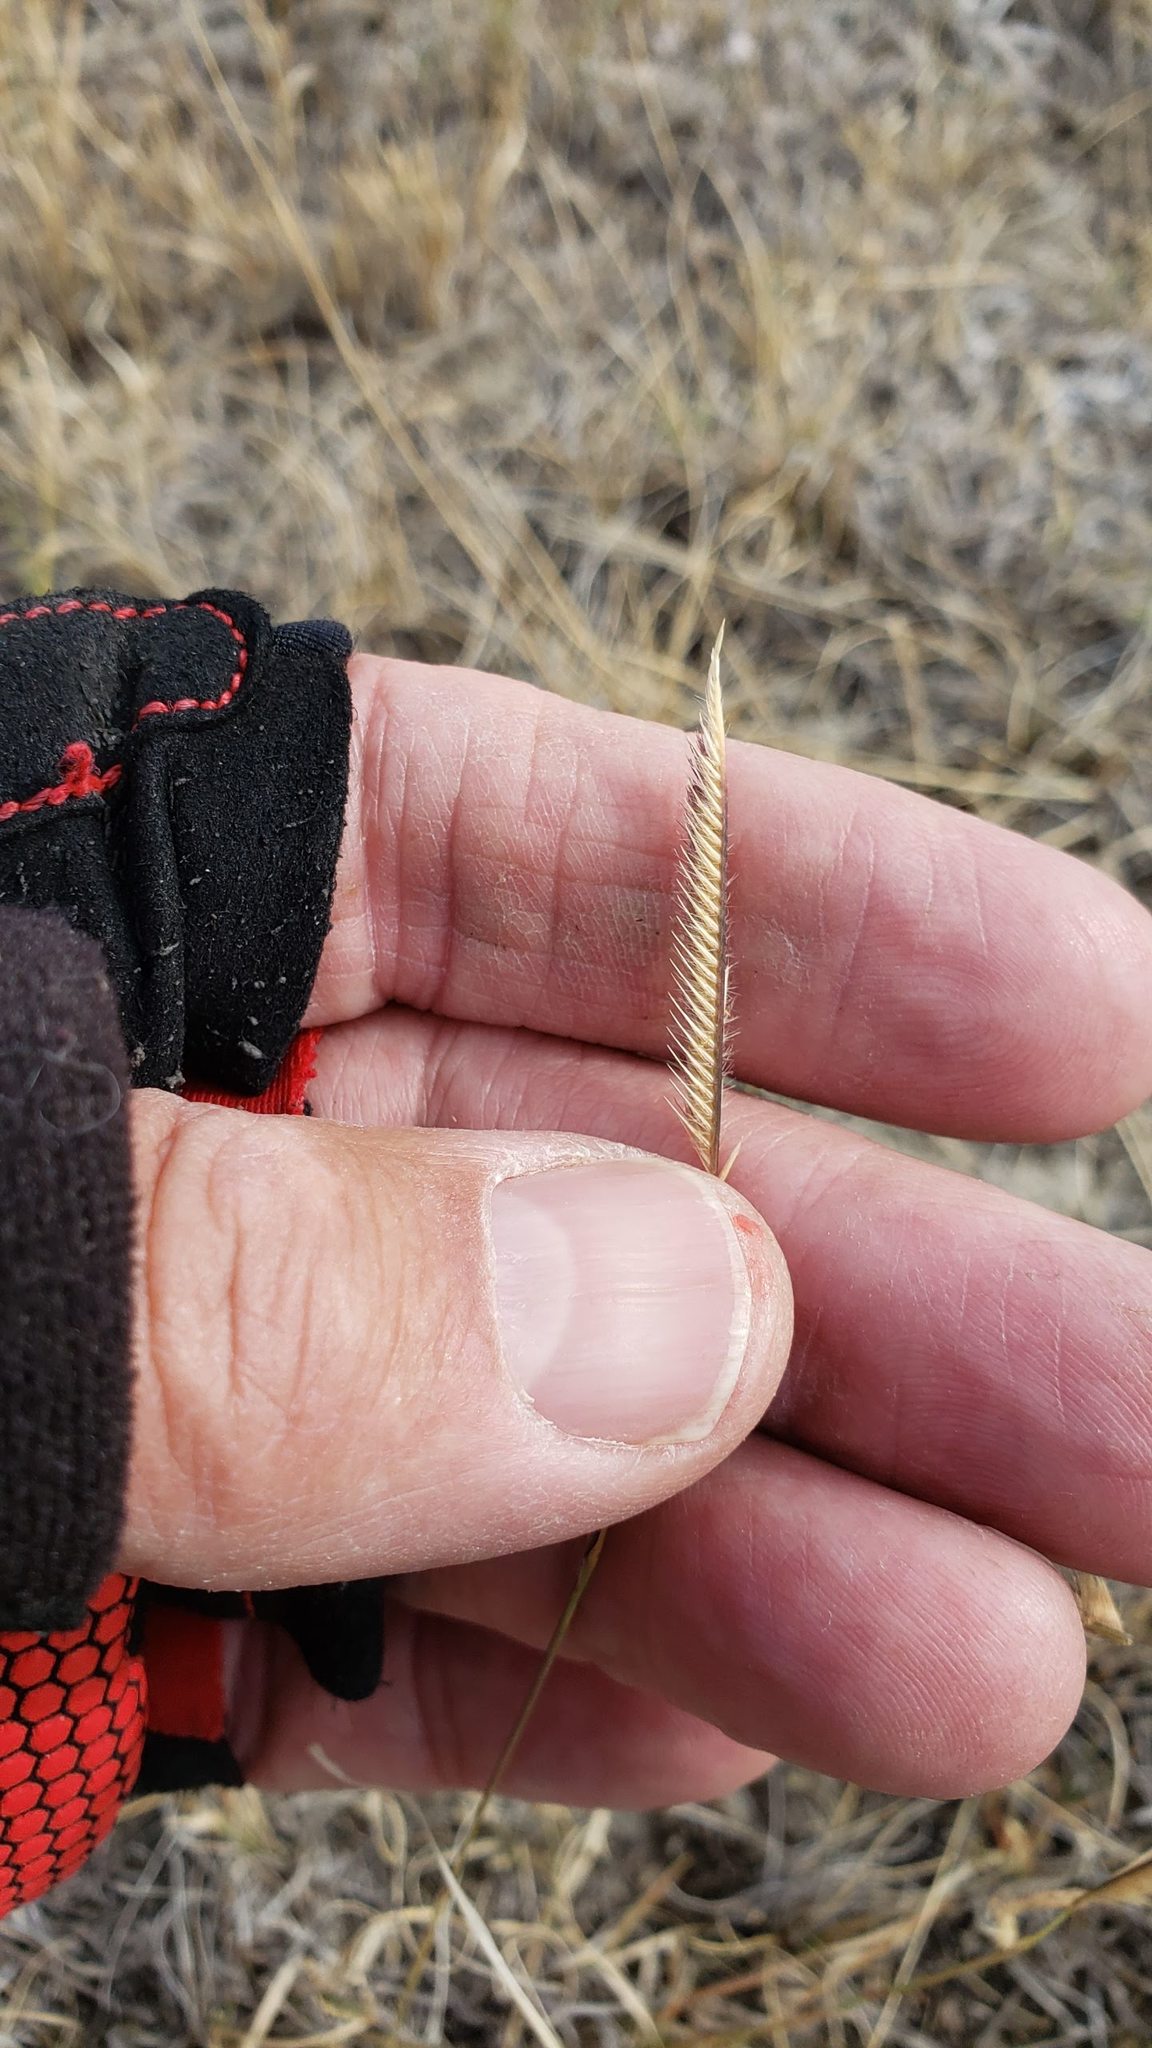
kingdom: Plantae
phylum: Tracheophyta
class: Liliopsida
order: Poales
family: Poaceae
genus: Agropyron
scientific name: Agropyron cristatum
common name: Crested wheatgrass
